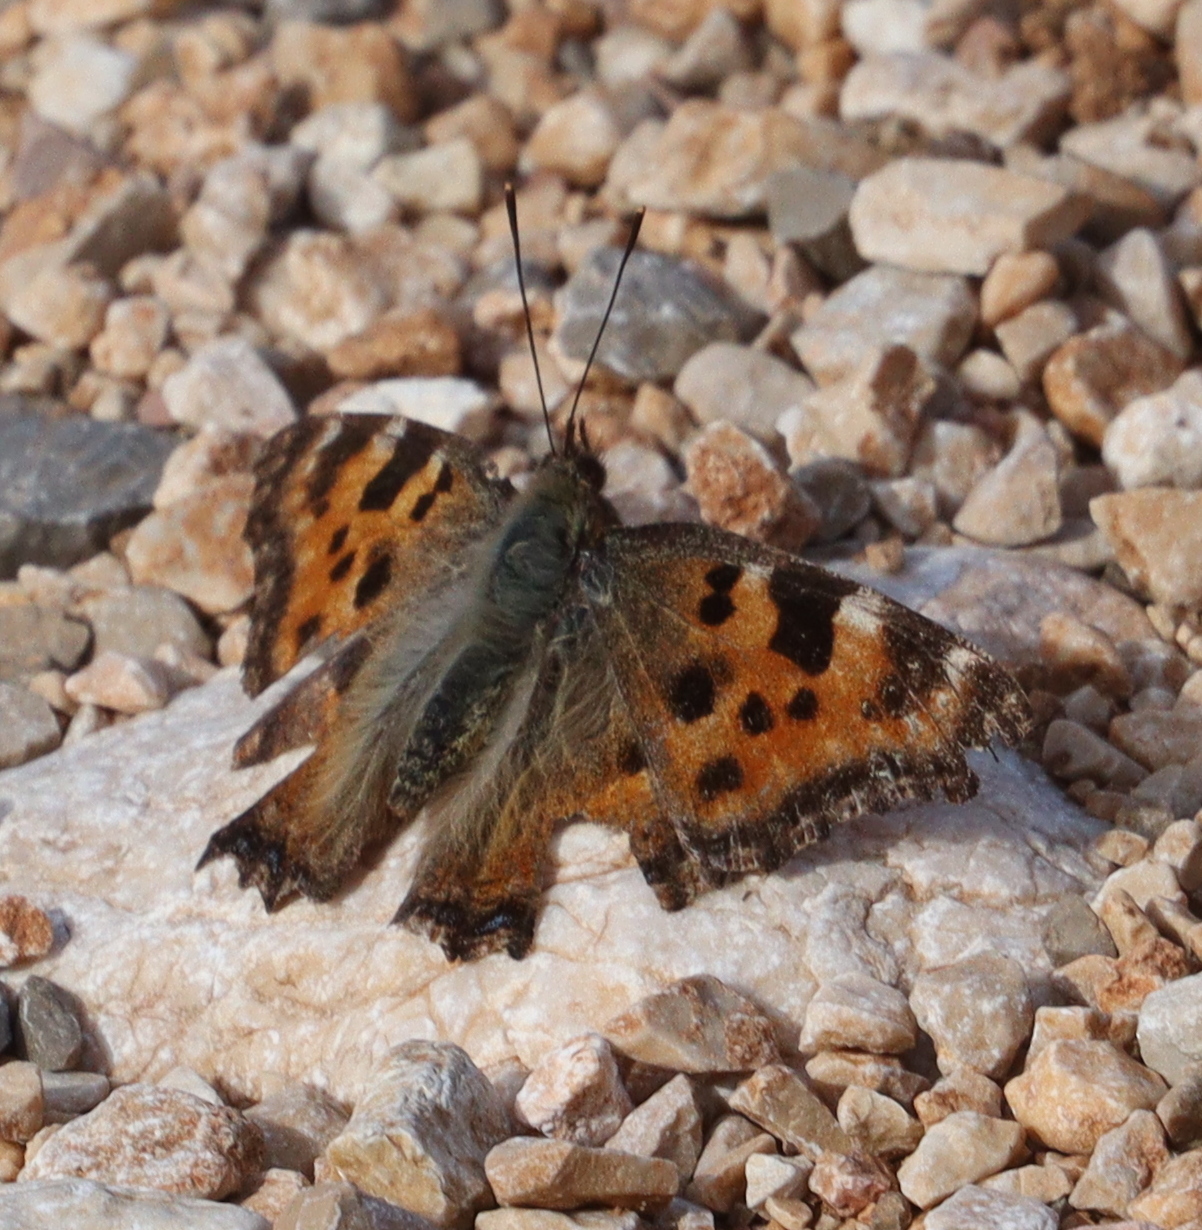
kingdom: Animalia
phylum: Arthropoda
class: Insecta
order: Lepidoptera
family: Nymphalidae
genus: Nymphalis
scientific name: Nymphalis polychloros
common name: Large tortoiseshell
